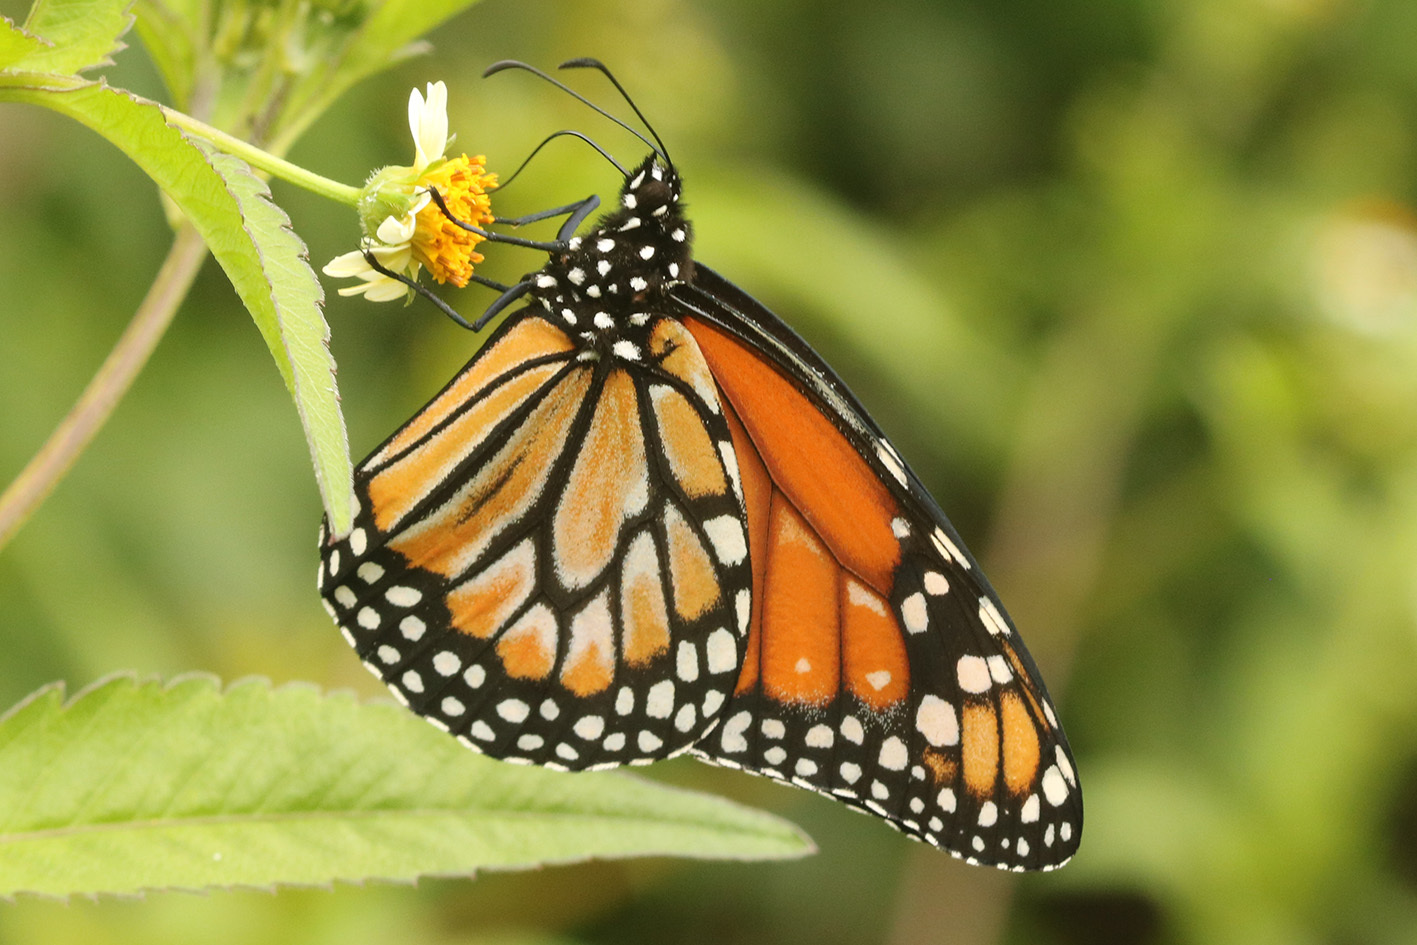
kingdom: Animalia
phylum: Arthropoda
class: Insecta
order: Lepidoptera
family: Nymphalidae
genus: Danaus
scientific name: Danaus erippus
